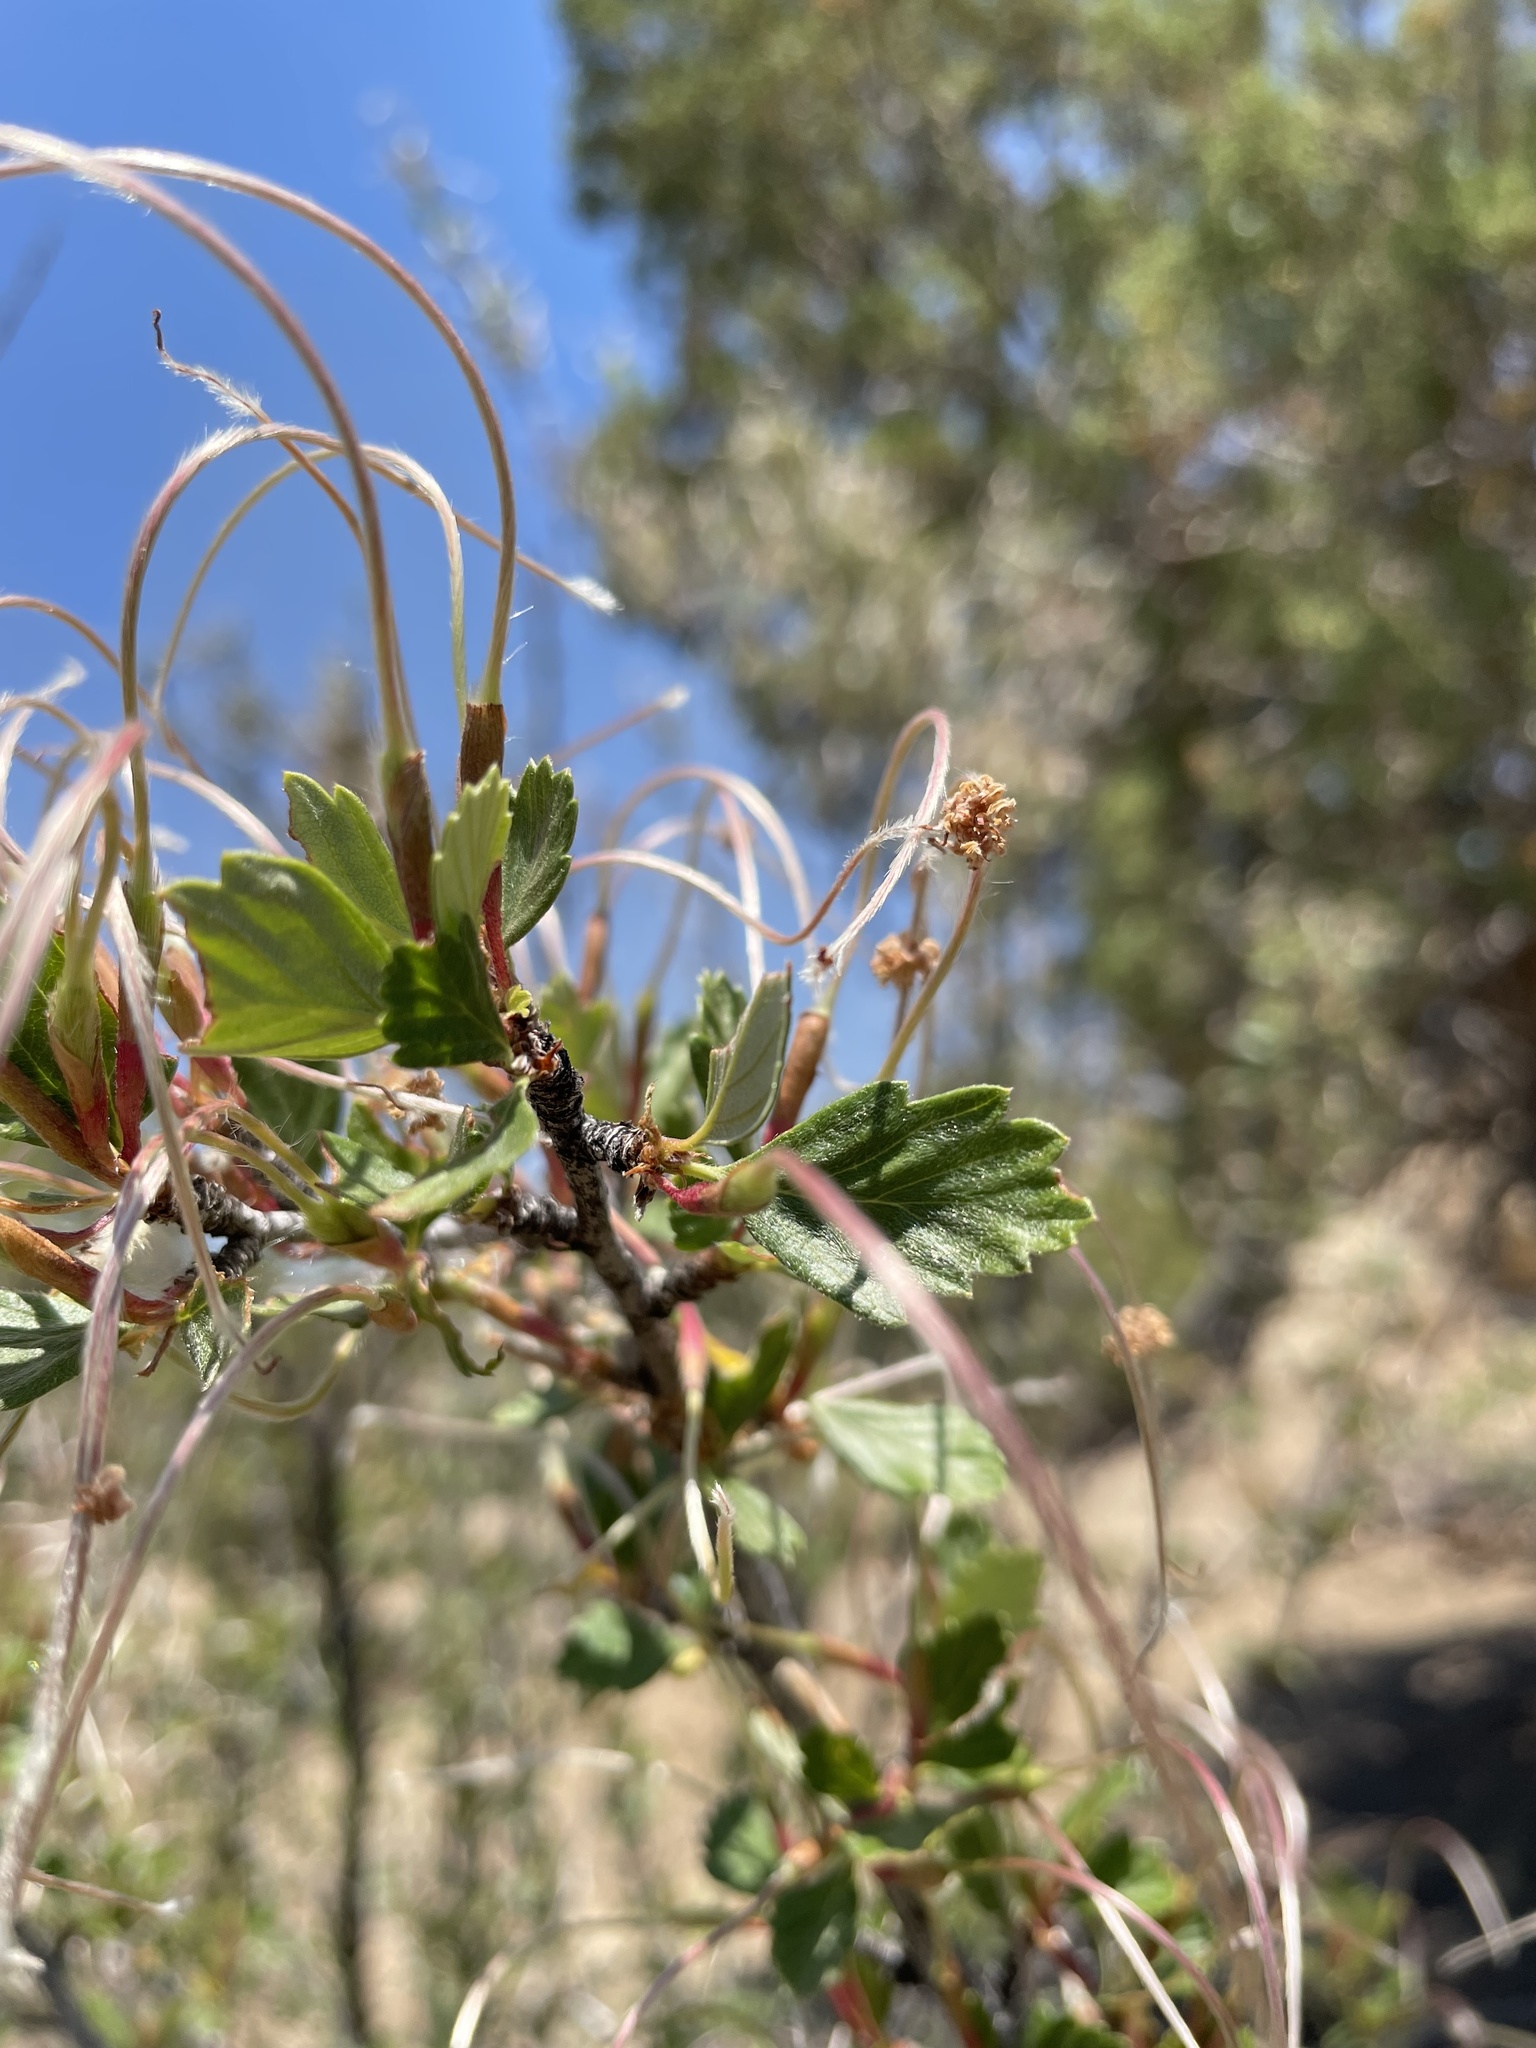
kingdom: Plantae
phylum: Tracheophyta
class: Magnoliopsida
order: Rosales
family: Rosaceae
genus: Cercocarpus
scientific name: Cercocarpus montanus
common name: Alder-leaf cercocarpus
